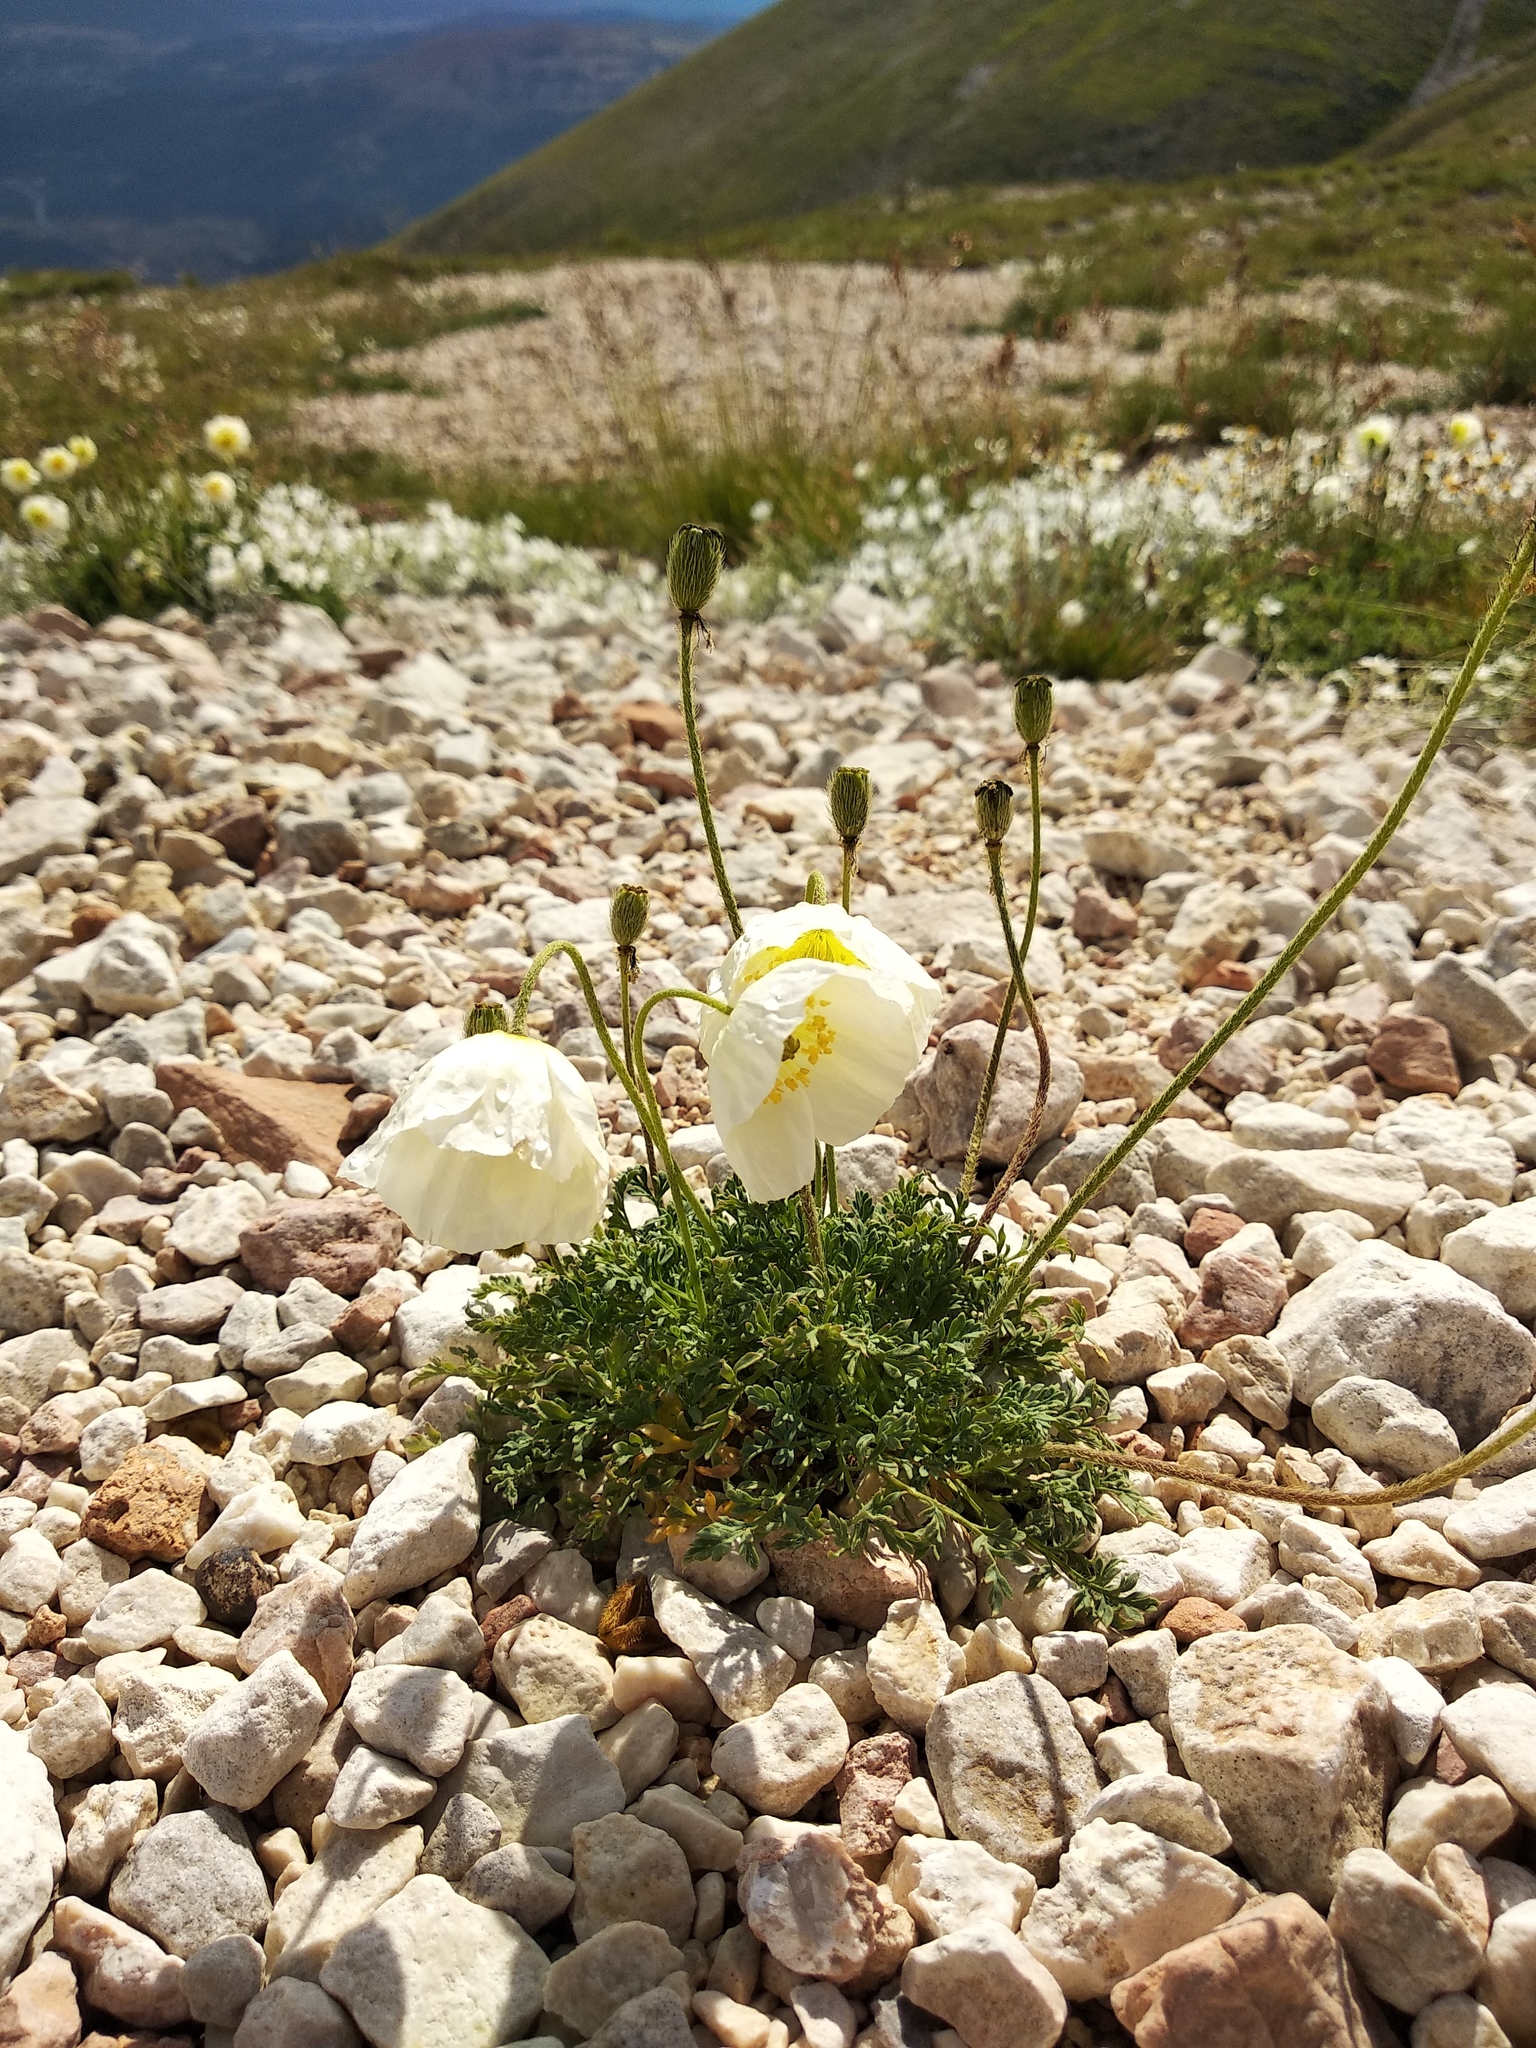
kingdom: Plantae
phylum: Tracheophyta
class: Magnoliopsida
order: Ranunculales
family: Papaveraceae
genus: Papaver
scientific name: Papaver alpinum
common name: Austrian poppy
